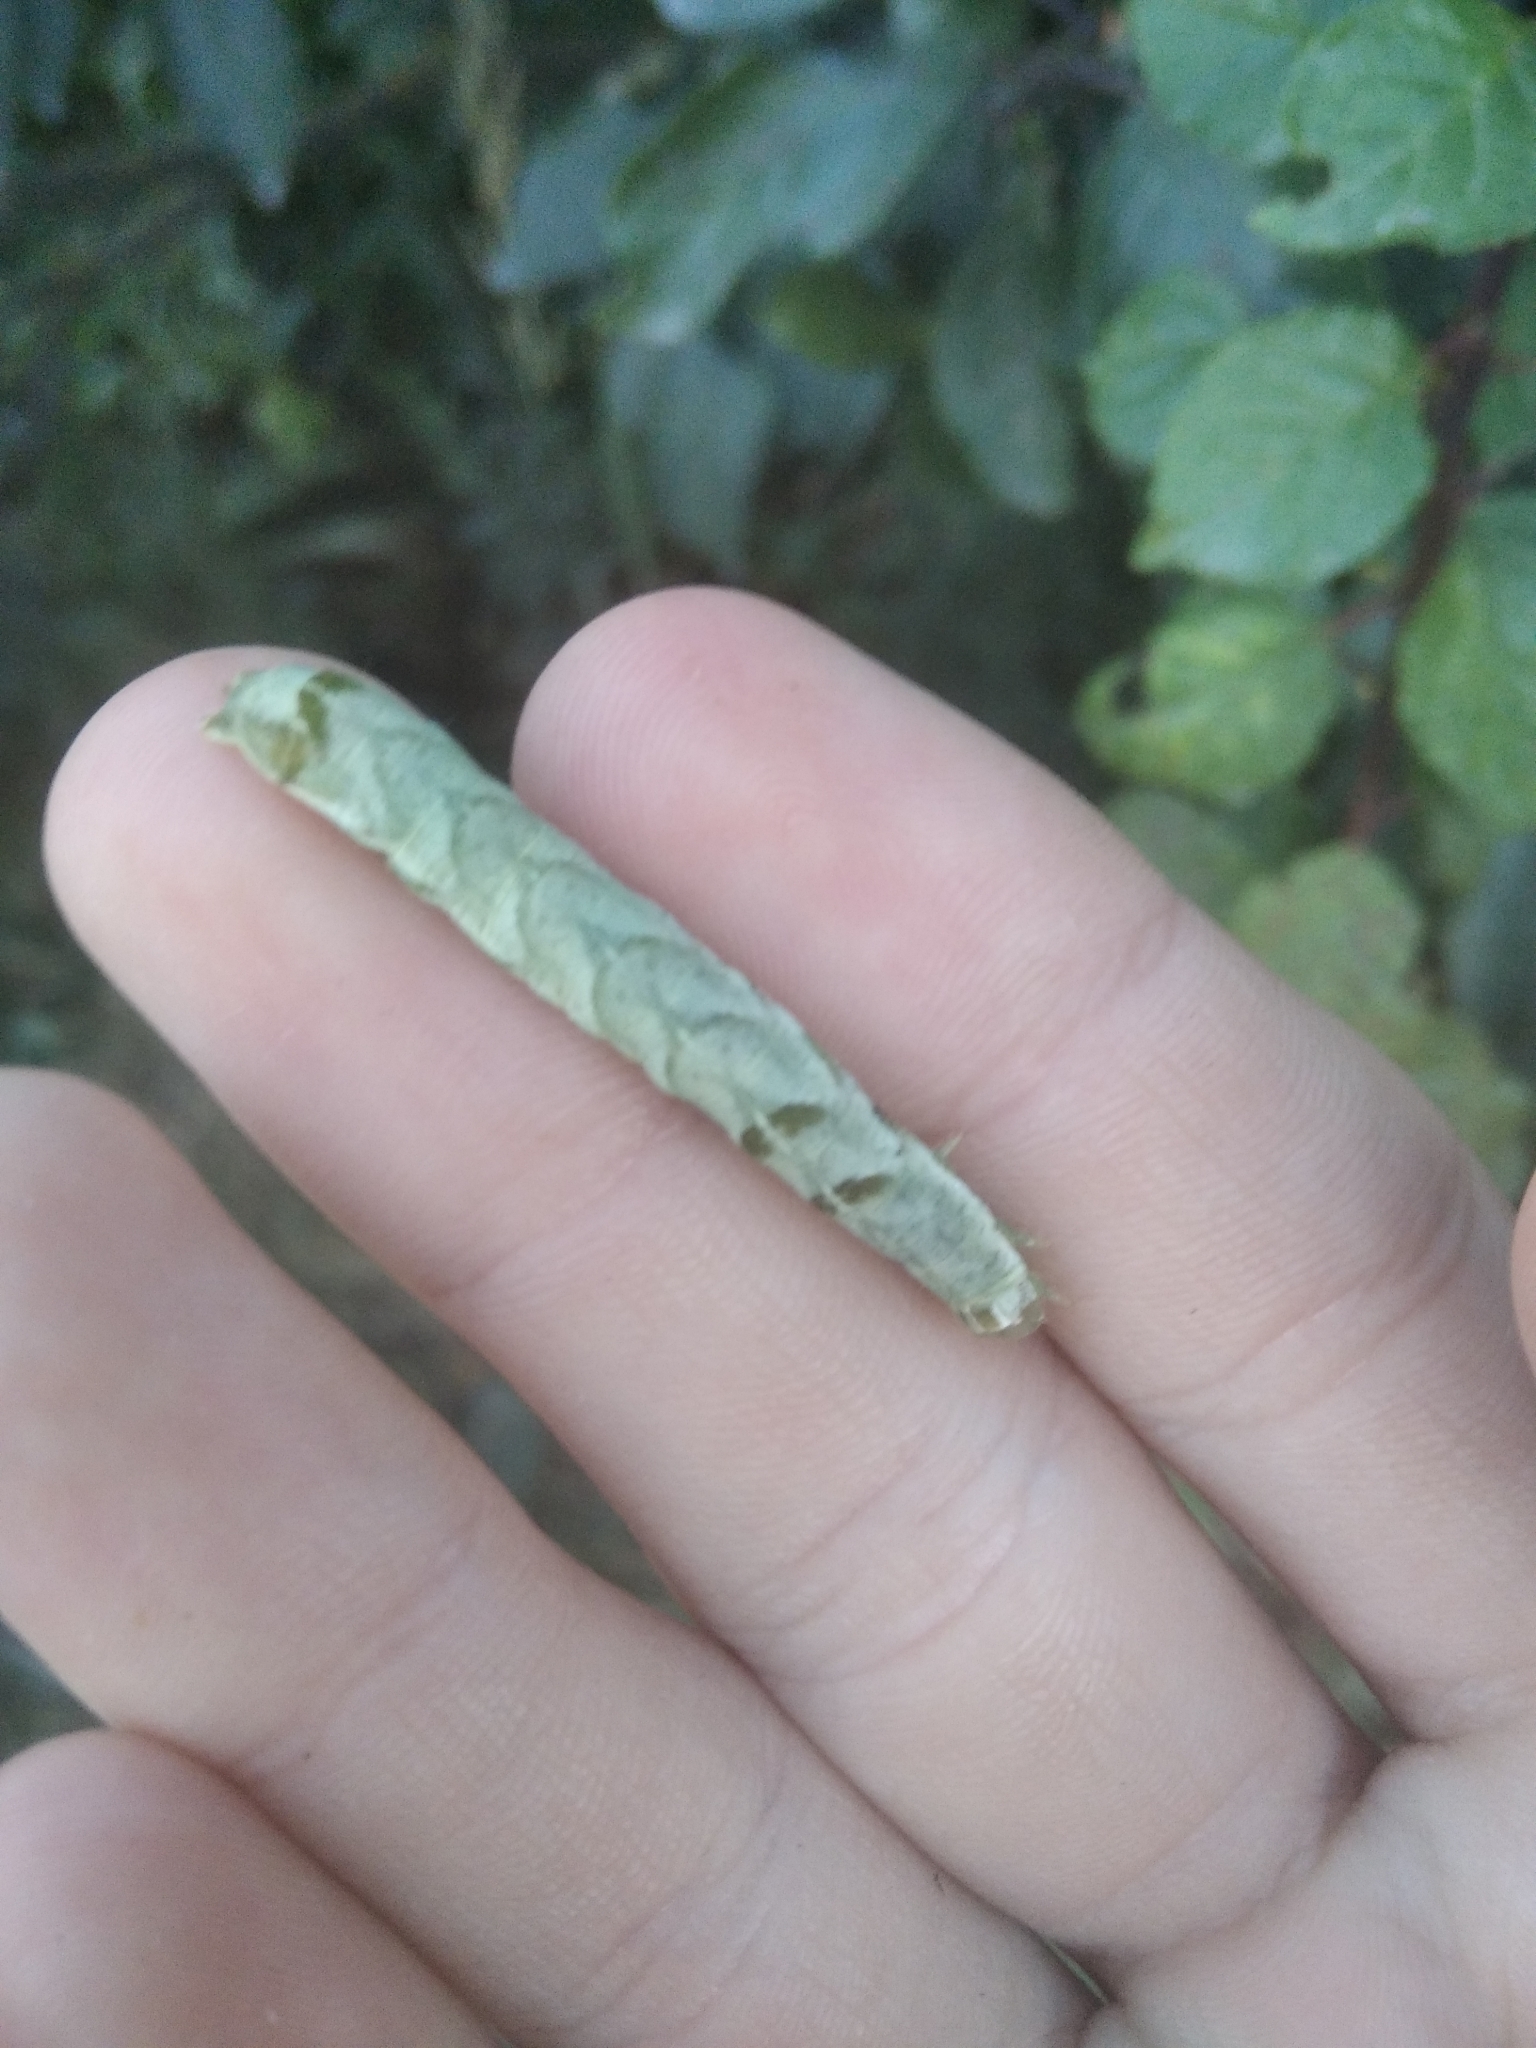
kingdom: Animalia
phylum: Arthropoda
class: Insecta
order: Lepidoptera
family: Noctuidae
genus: Melanchra
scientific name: Melanchra persicariae
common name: Dot moth
